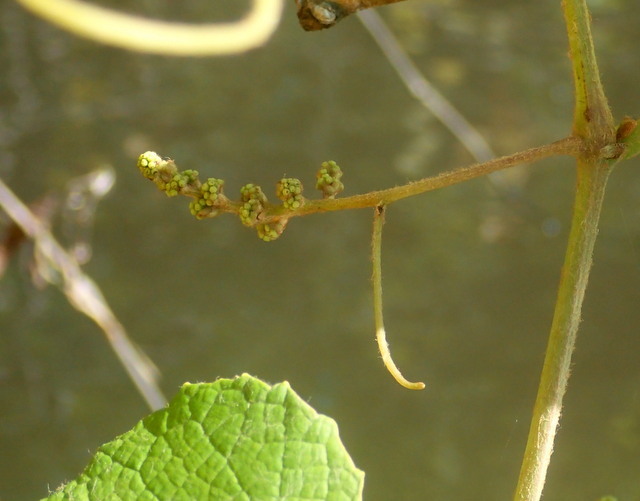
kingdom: Plantae
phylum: Tracheophyta
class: Magnoliopsida
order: Vitales
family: Vitaceae
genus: Vitis
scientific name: Vitis cinerea
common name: Ashy grape
